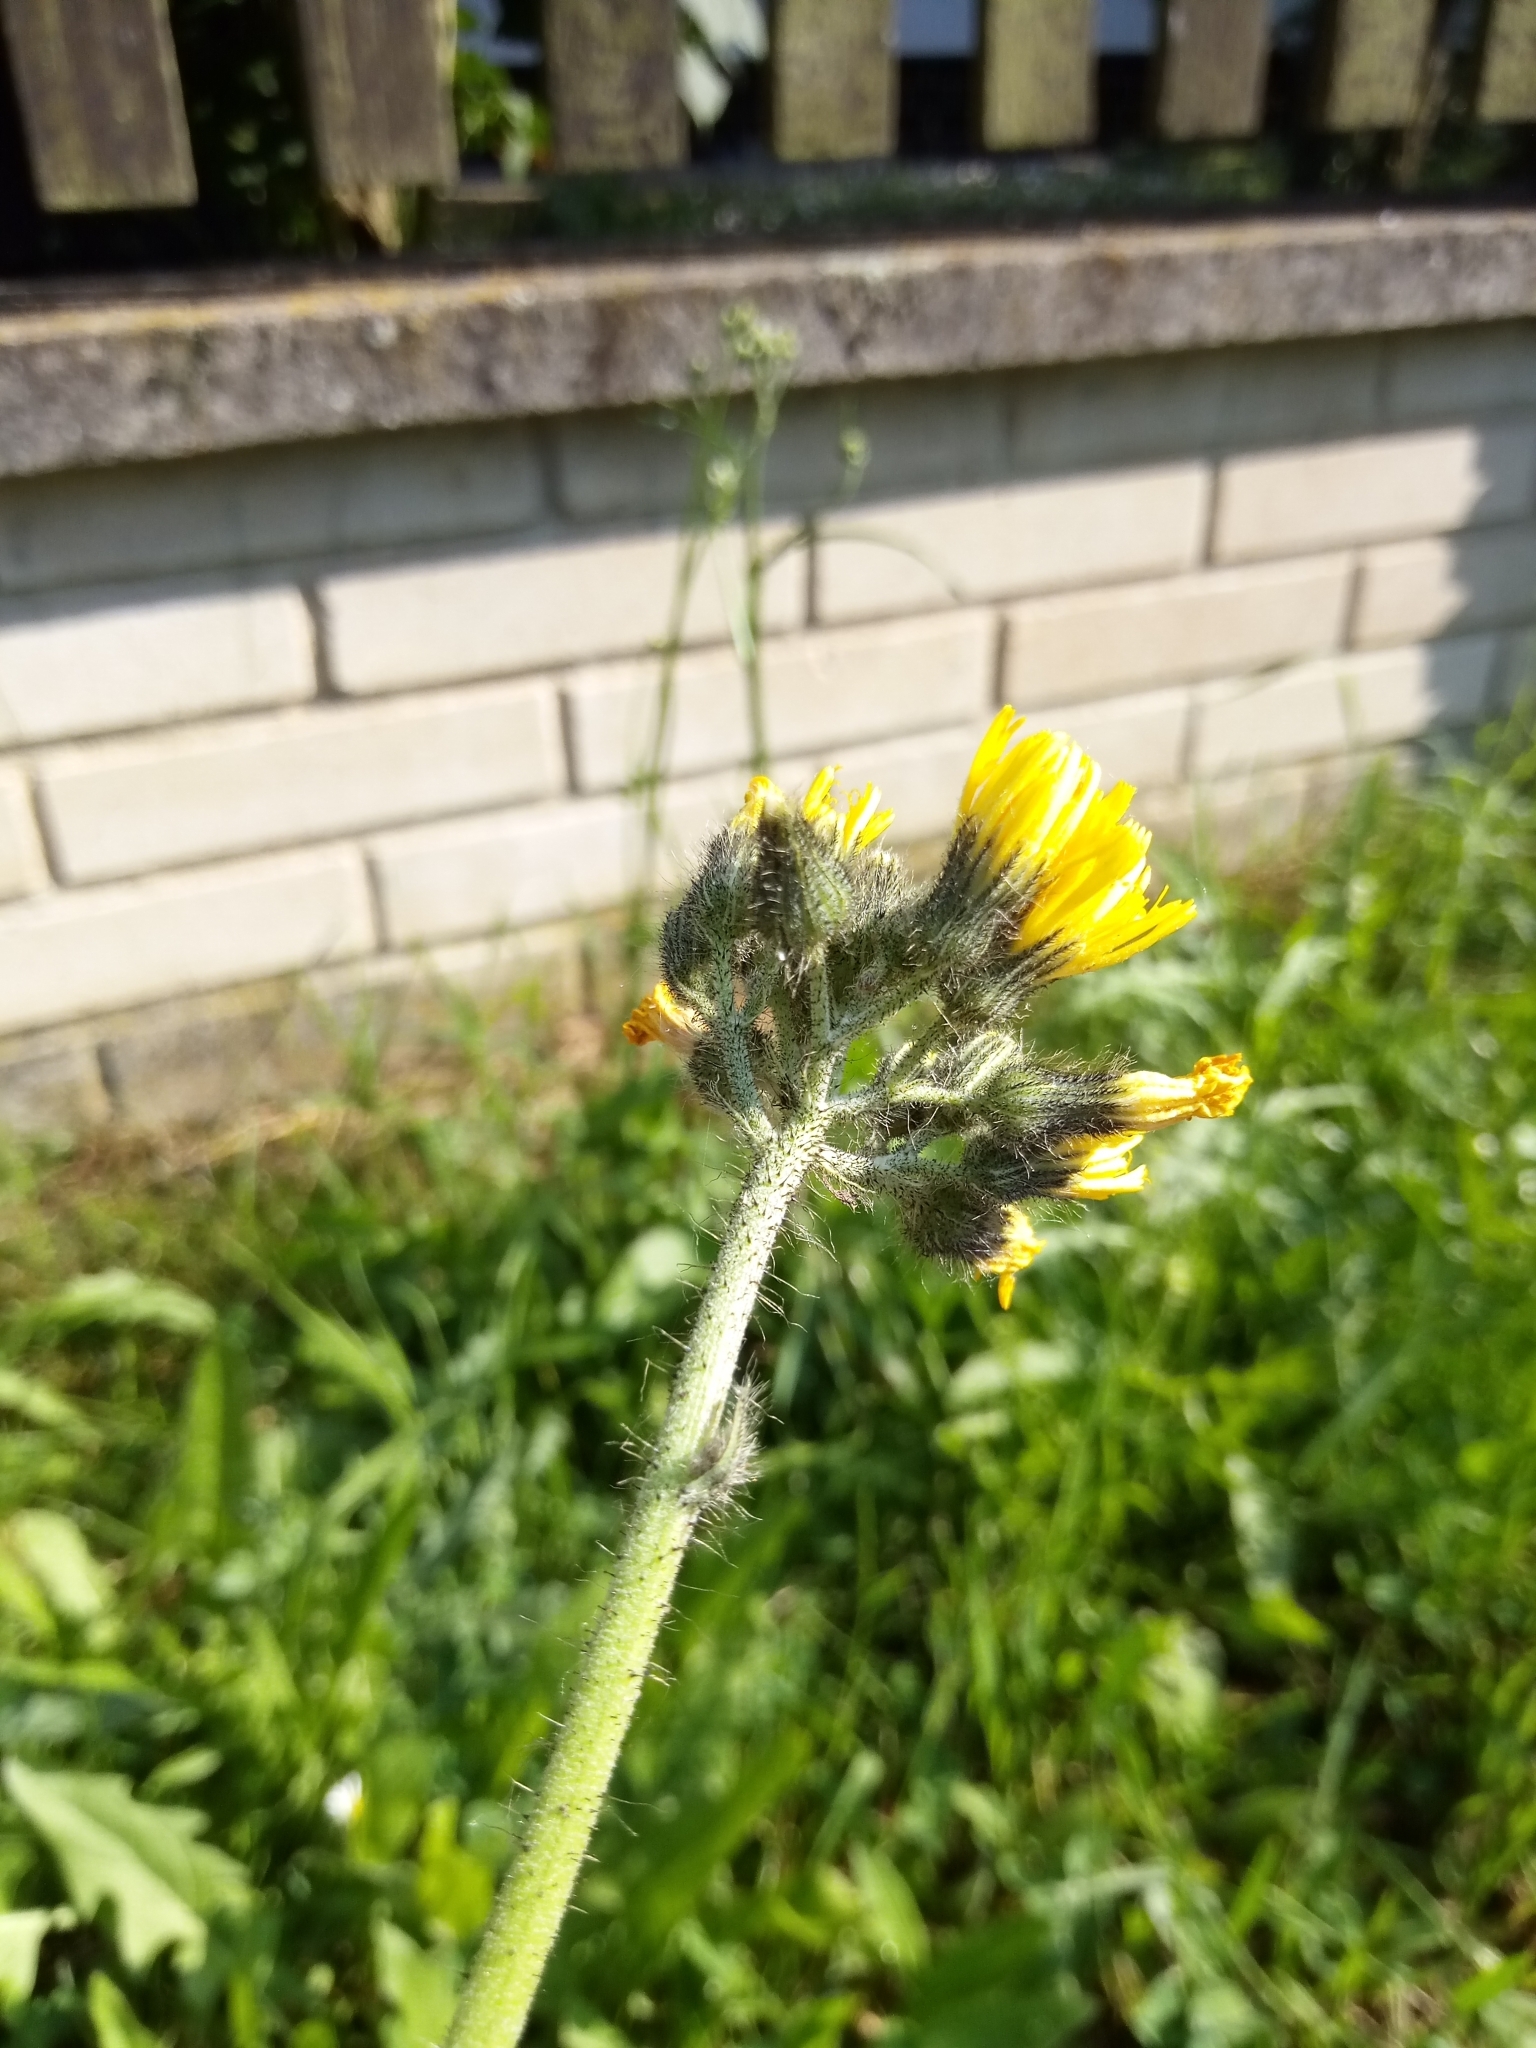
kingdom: Plantae
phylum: Tracheophyta
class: Magnoliopsida
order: Asterales
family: Asteraceae
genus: Pilosella
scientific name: Pilosella caespitosa
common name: Yellow fox-and-cubs
